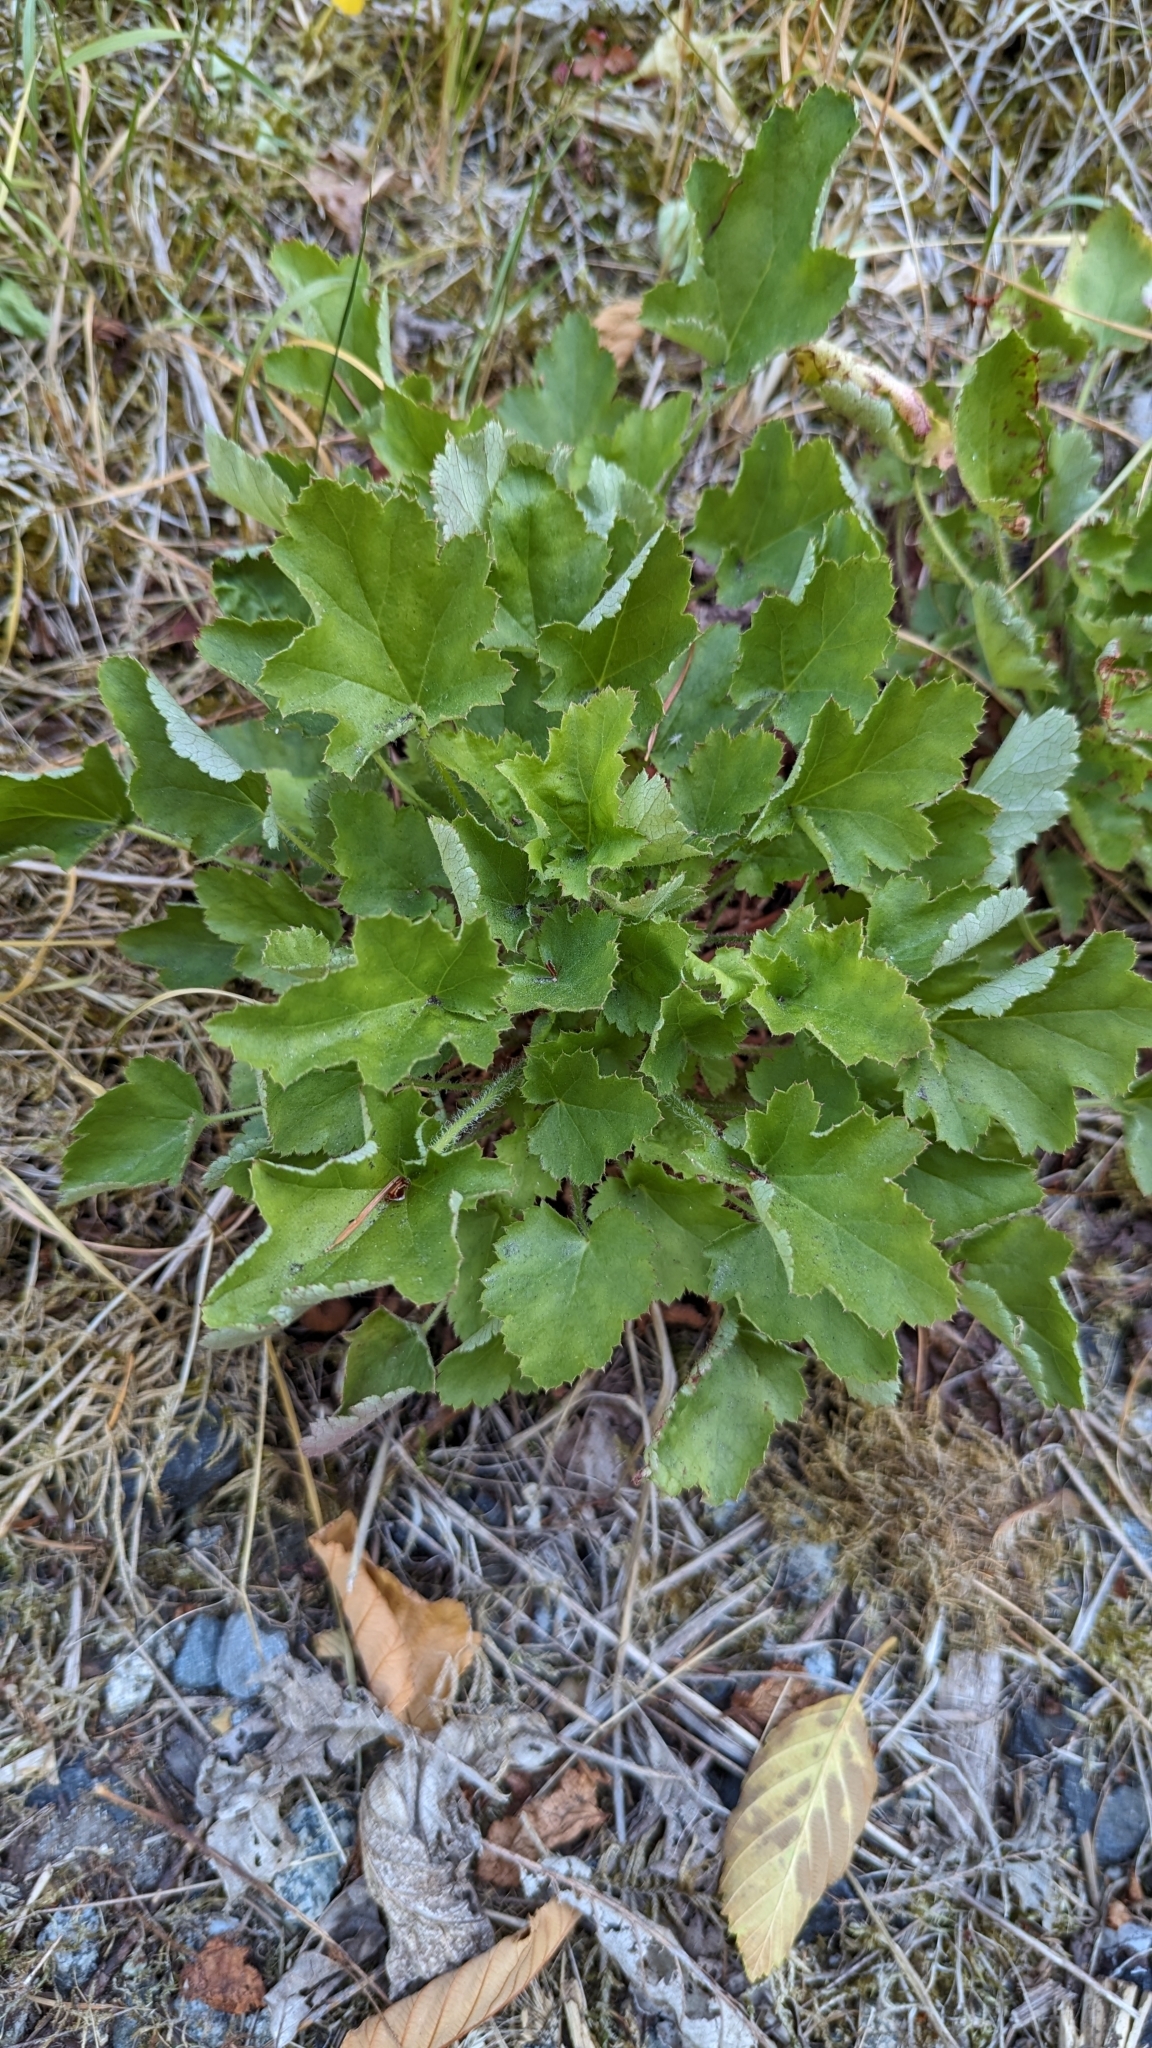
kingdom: Plantae
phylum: Tracheophyta
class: Magnoliopsida
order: Saxifragales
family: Saxifragaceae
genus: Heuchera
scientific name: Heuchera micrantha
